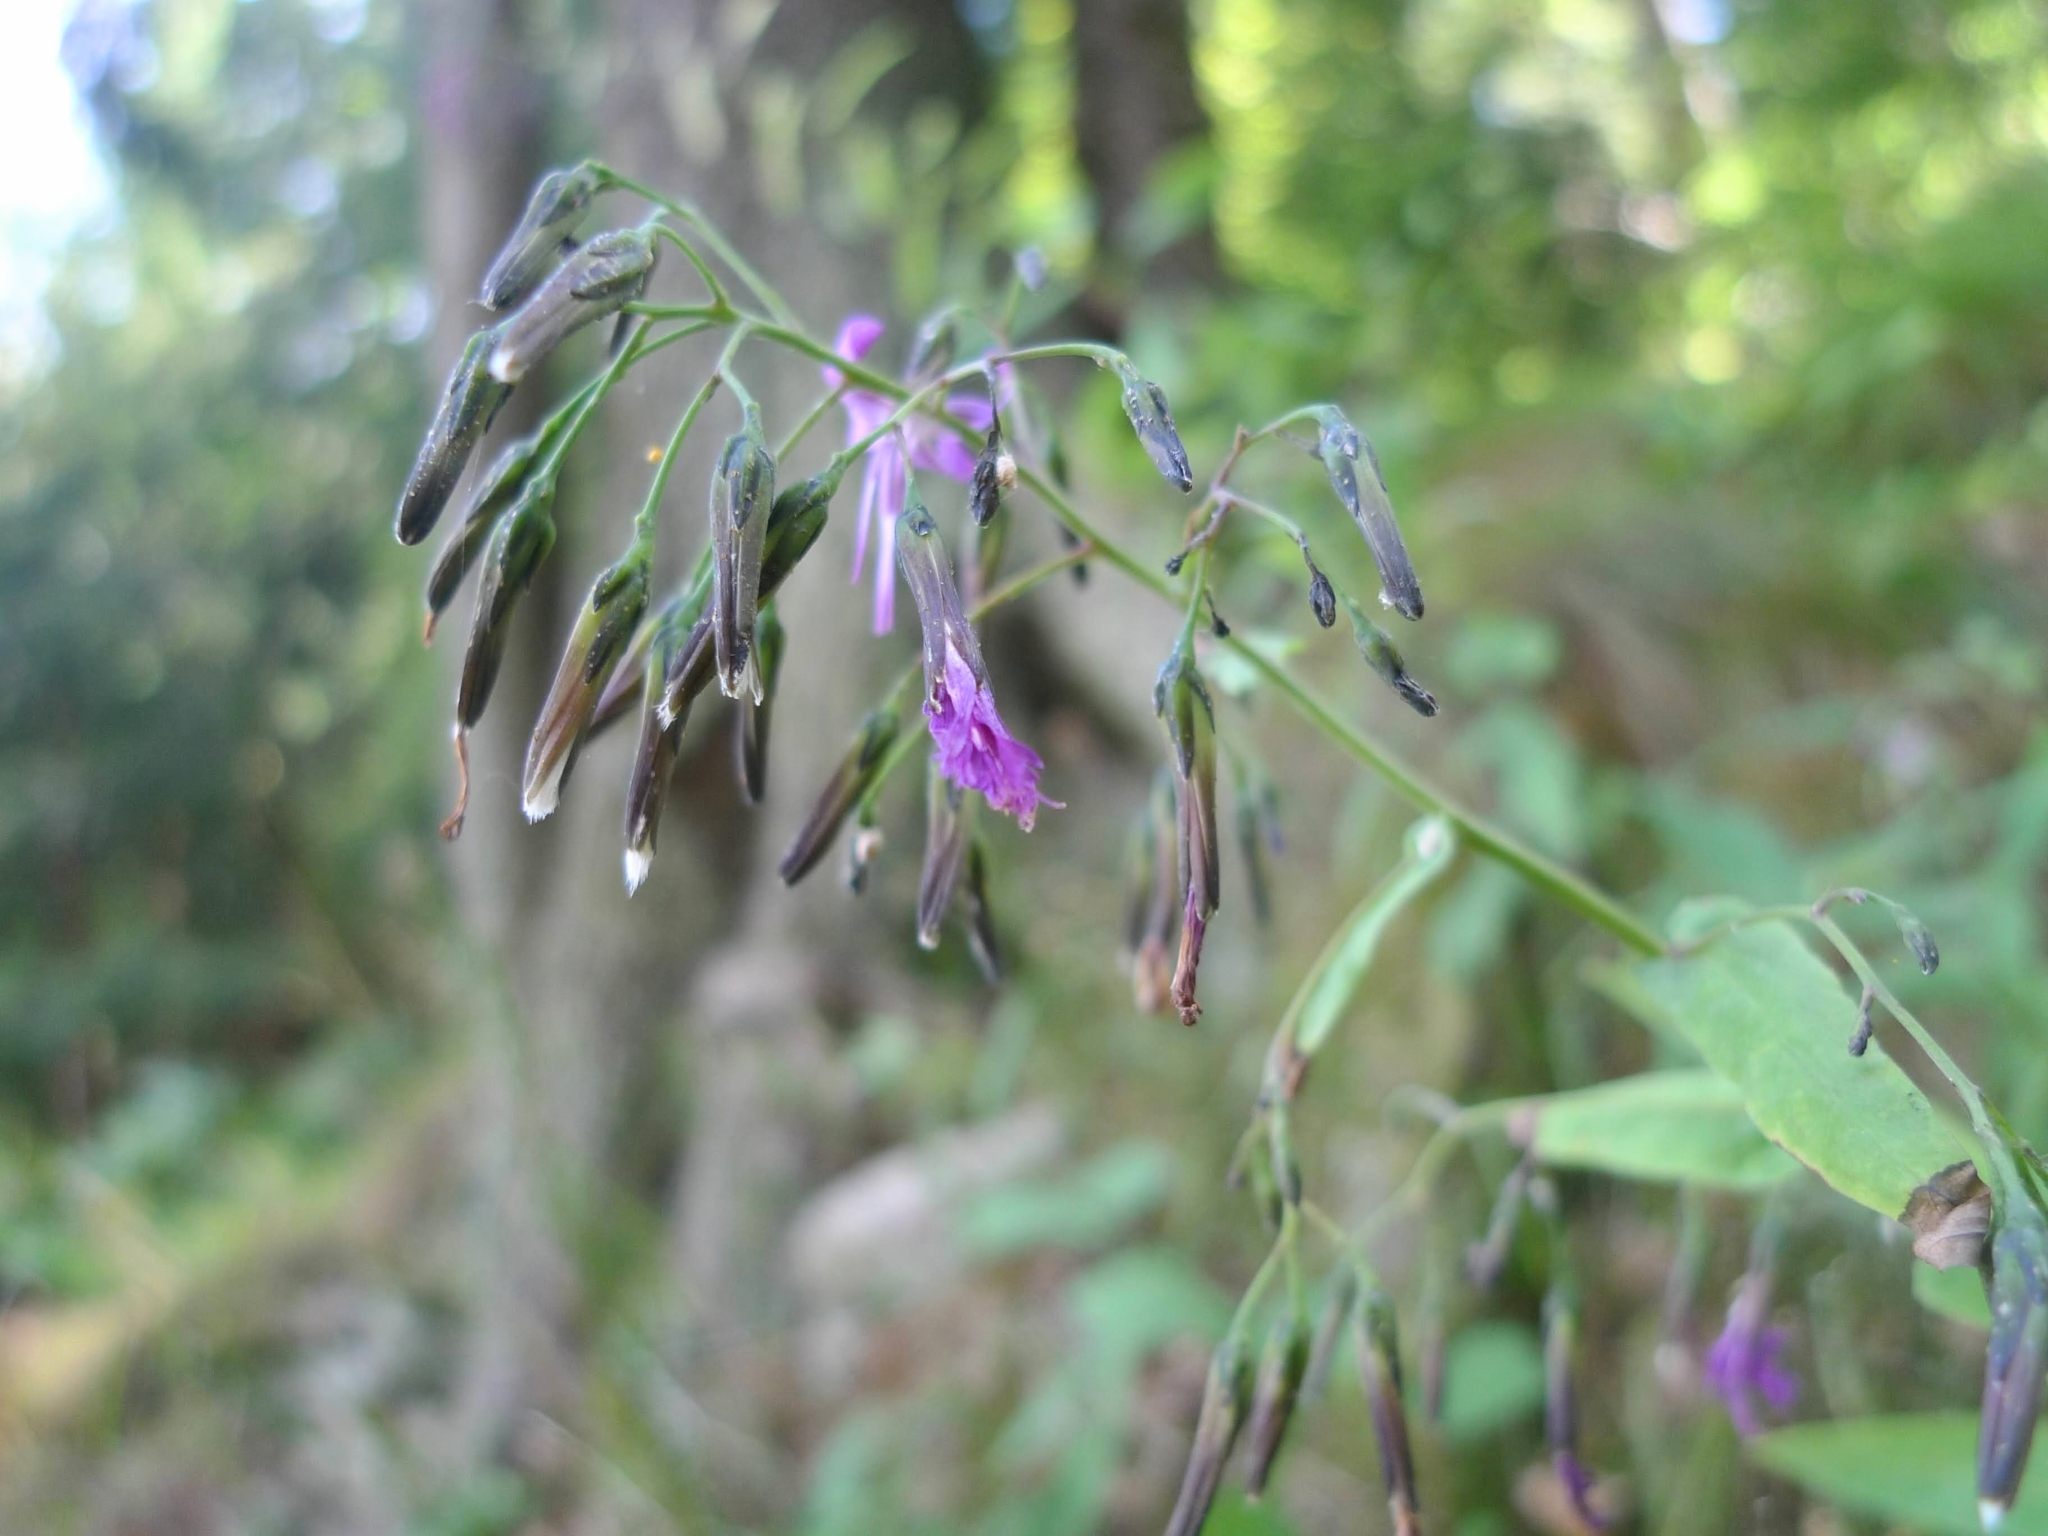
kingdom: Plantae
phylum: Tracheophyta
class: Magnoliopsida
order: Asterales
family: Asteraceae
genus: Prenanthes
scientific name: Prenanthes purpurea
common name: Purple lettuce
